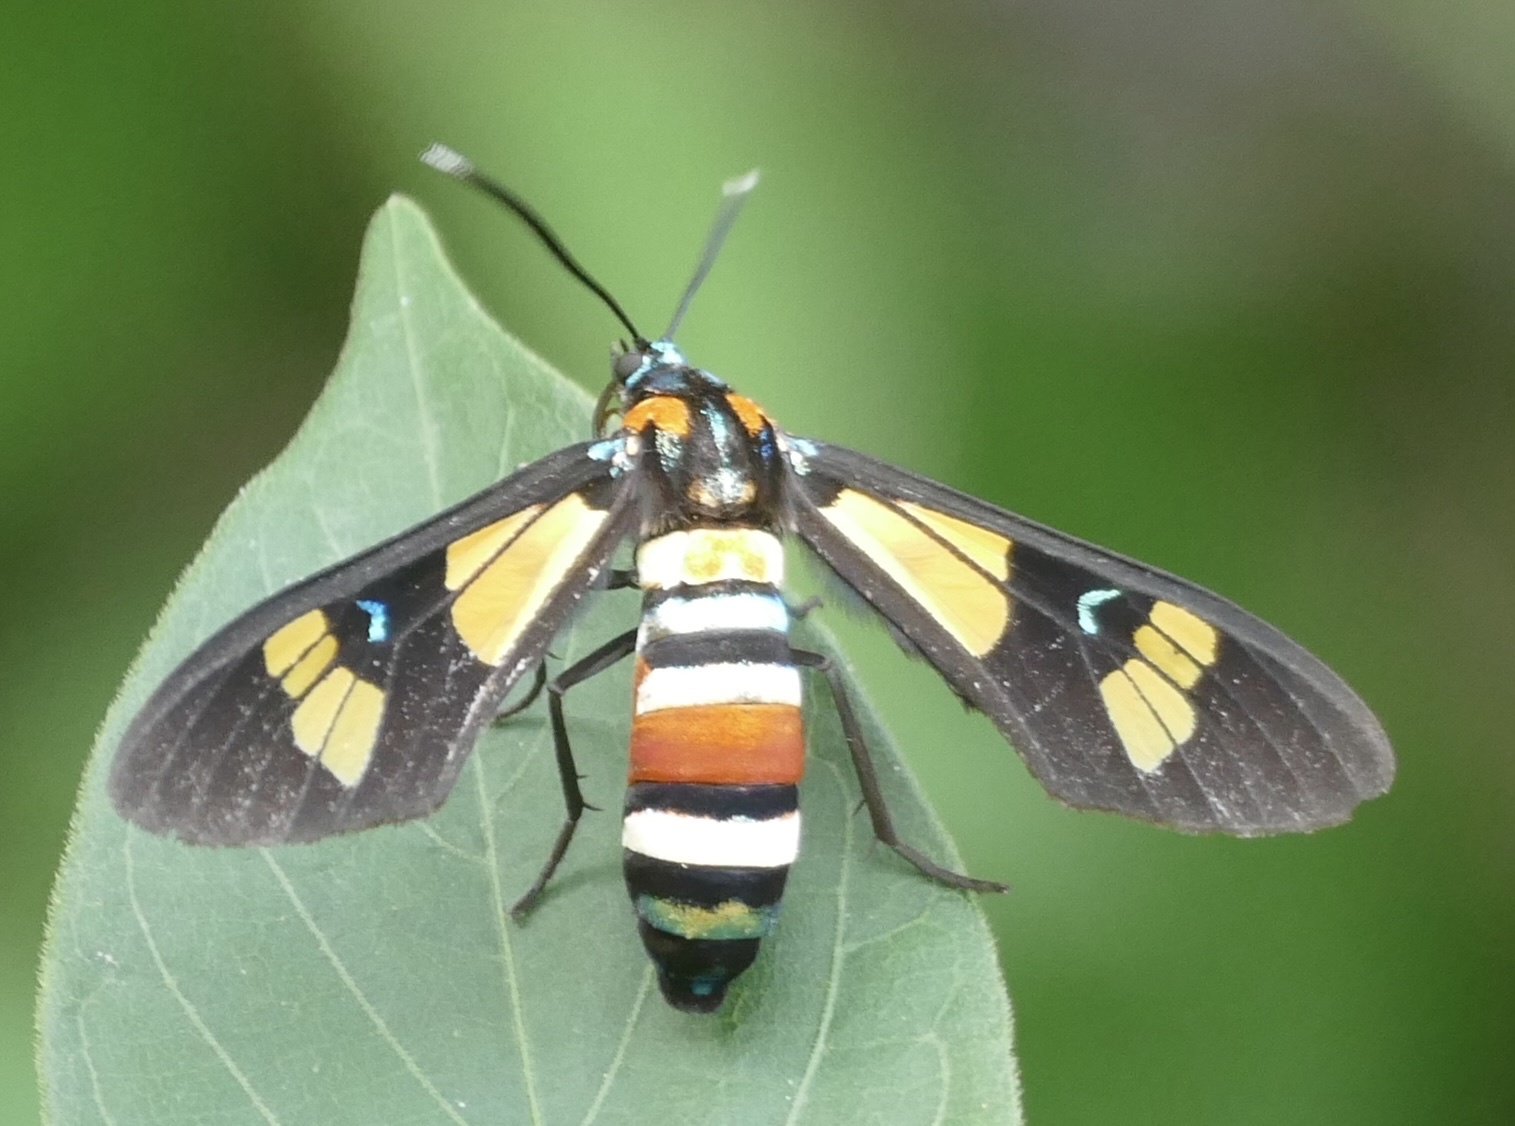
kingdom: Animalia
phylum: Arthropoda
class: Insecta
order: Lepidoptera
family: Erebidae
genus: Euchromia
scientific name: Euchromia lethe
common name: Basker
